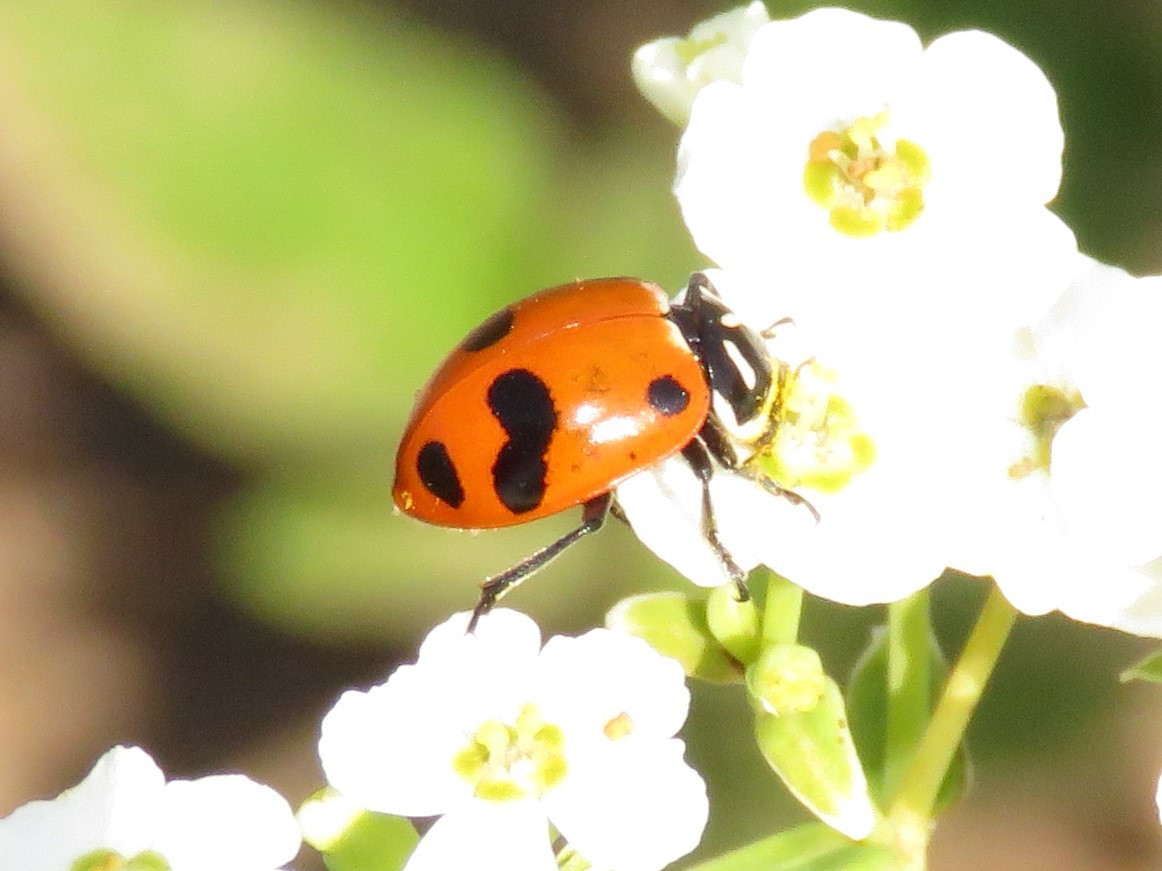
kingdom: Animalia
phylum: Arthropoda
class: Insecta
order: Coleoptera
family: Coccinellidae
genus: Hippodamia
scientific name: Hippodamia glacialis
